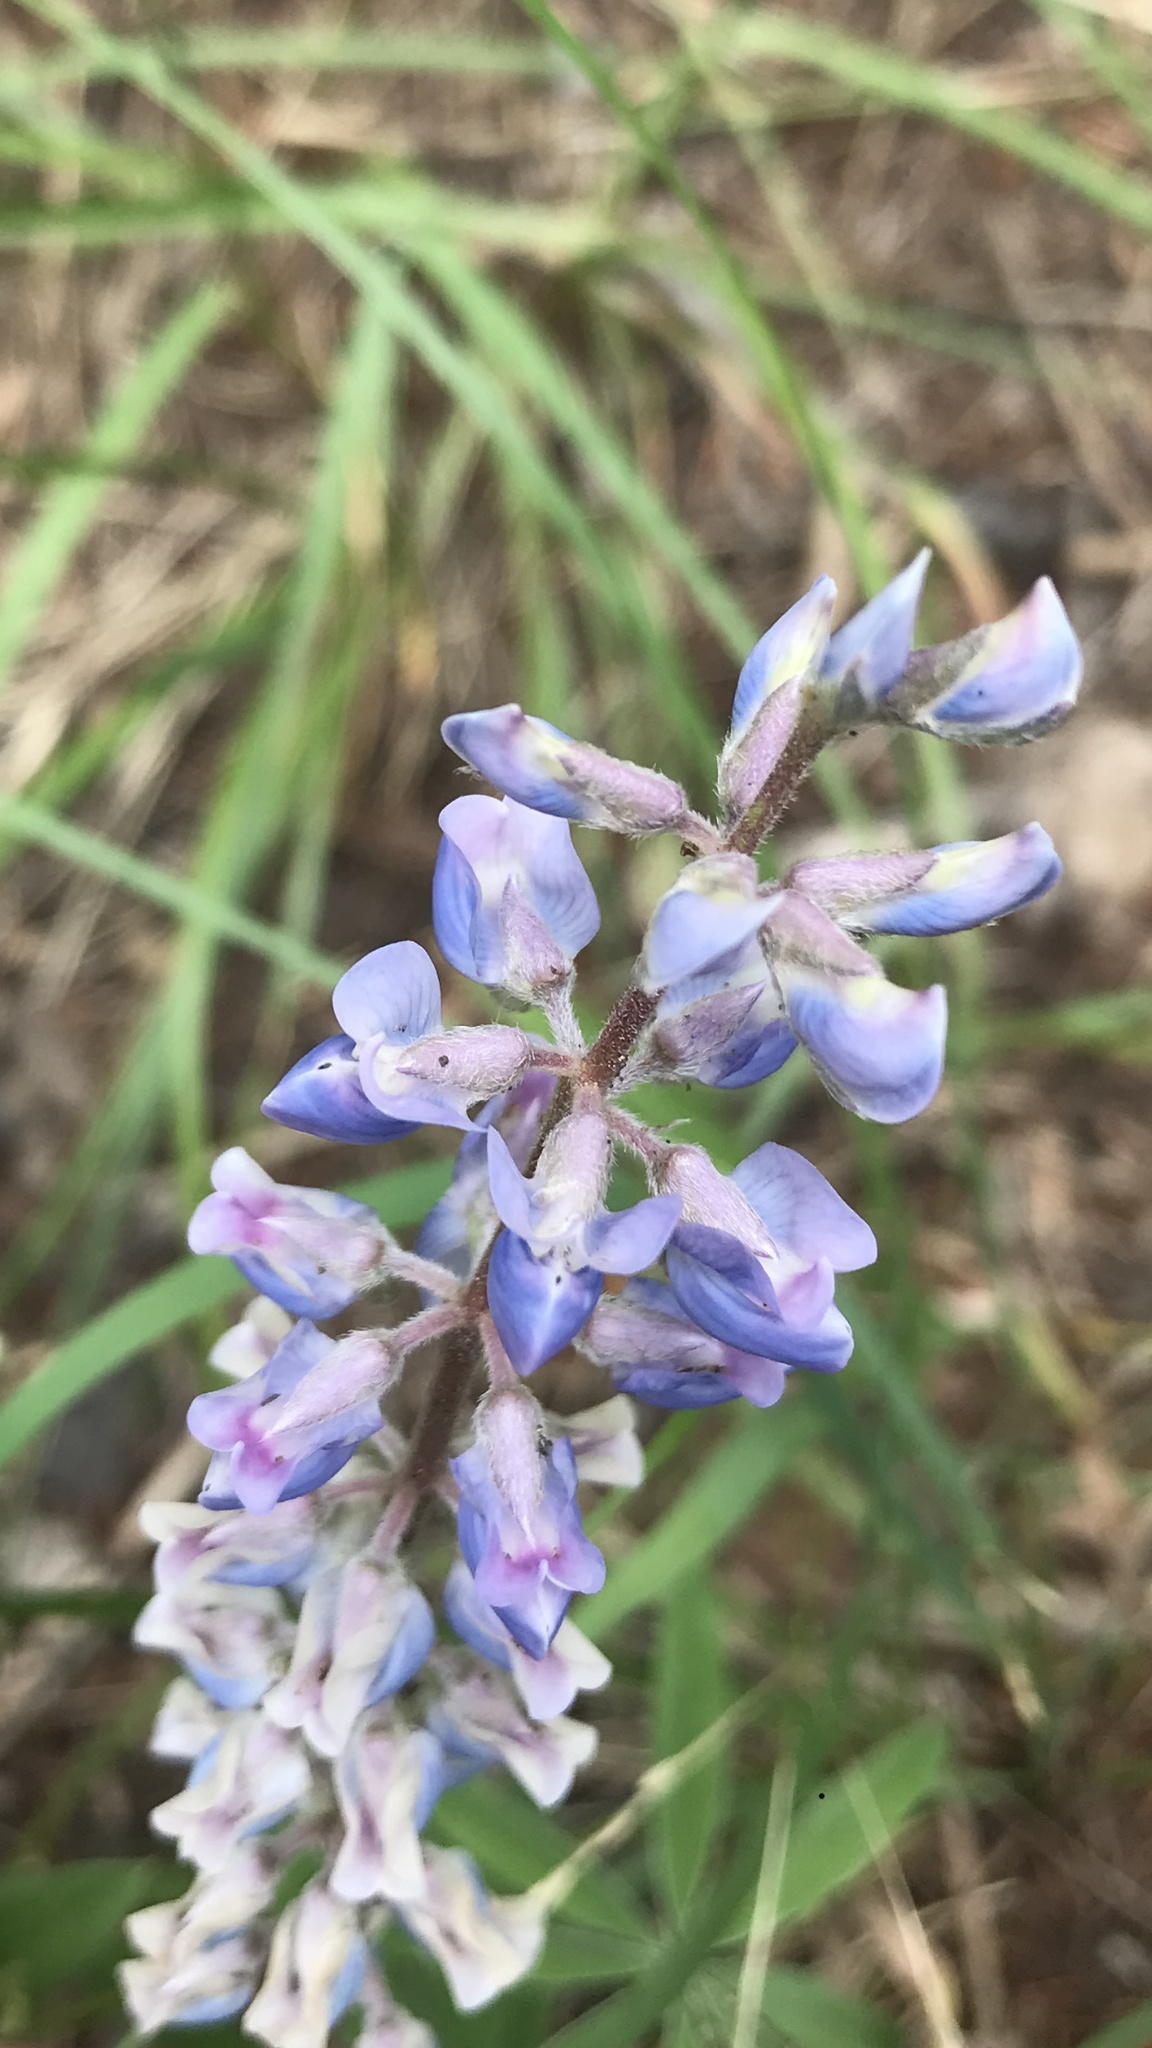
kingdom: Plantae
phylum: Tracheophyta
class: Magnoliopsida
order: Fabales
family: Fabaceae
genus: Lupinus
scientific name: Lupinus argenteus
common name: Silvery lupine
